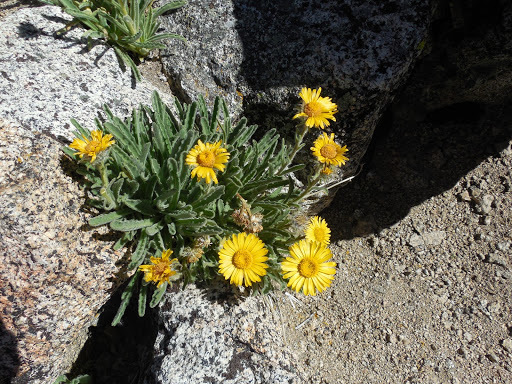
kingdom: Plantae
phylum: Tracheophyta
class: Magnoliopsida
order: Asterales
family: Asteraceae
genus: Hulsea
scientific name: Hulsea algida
